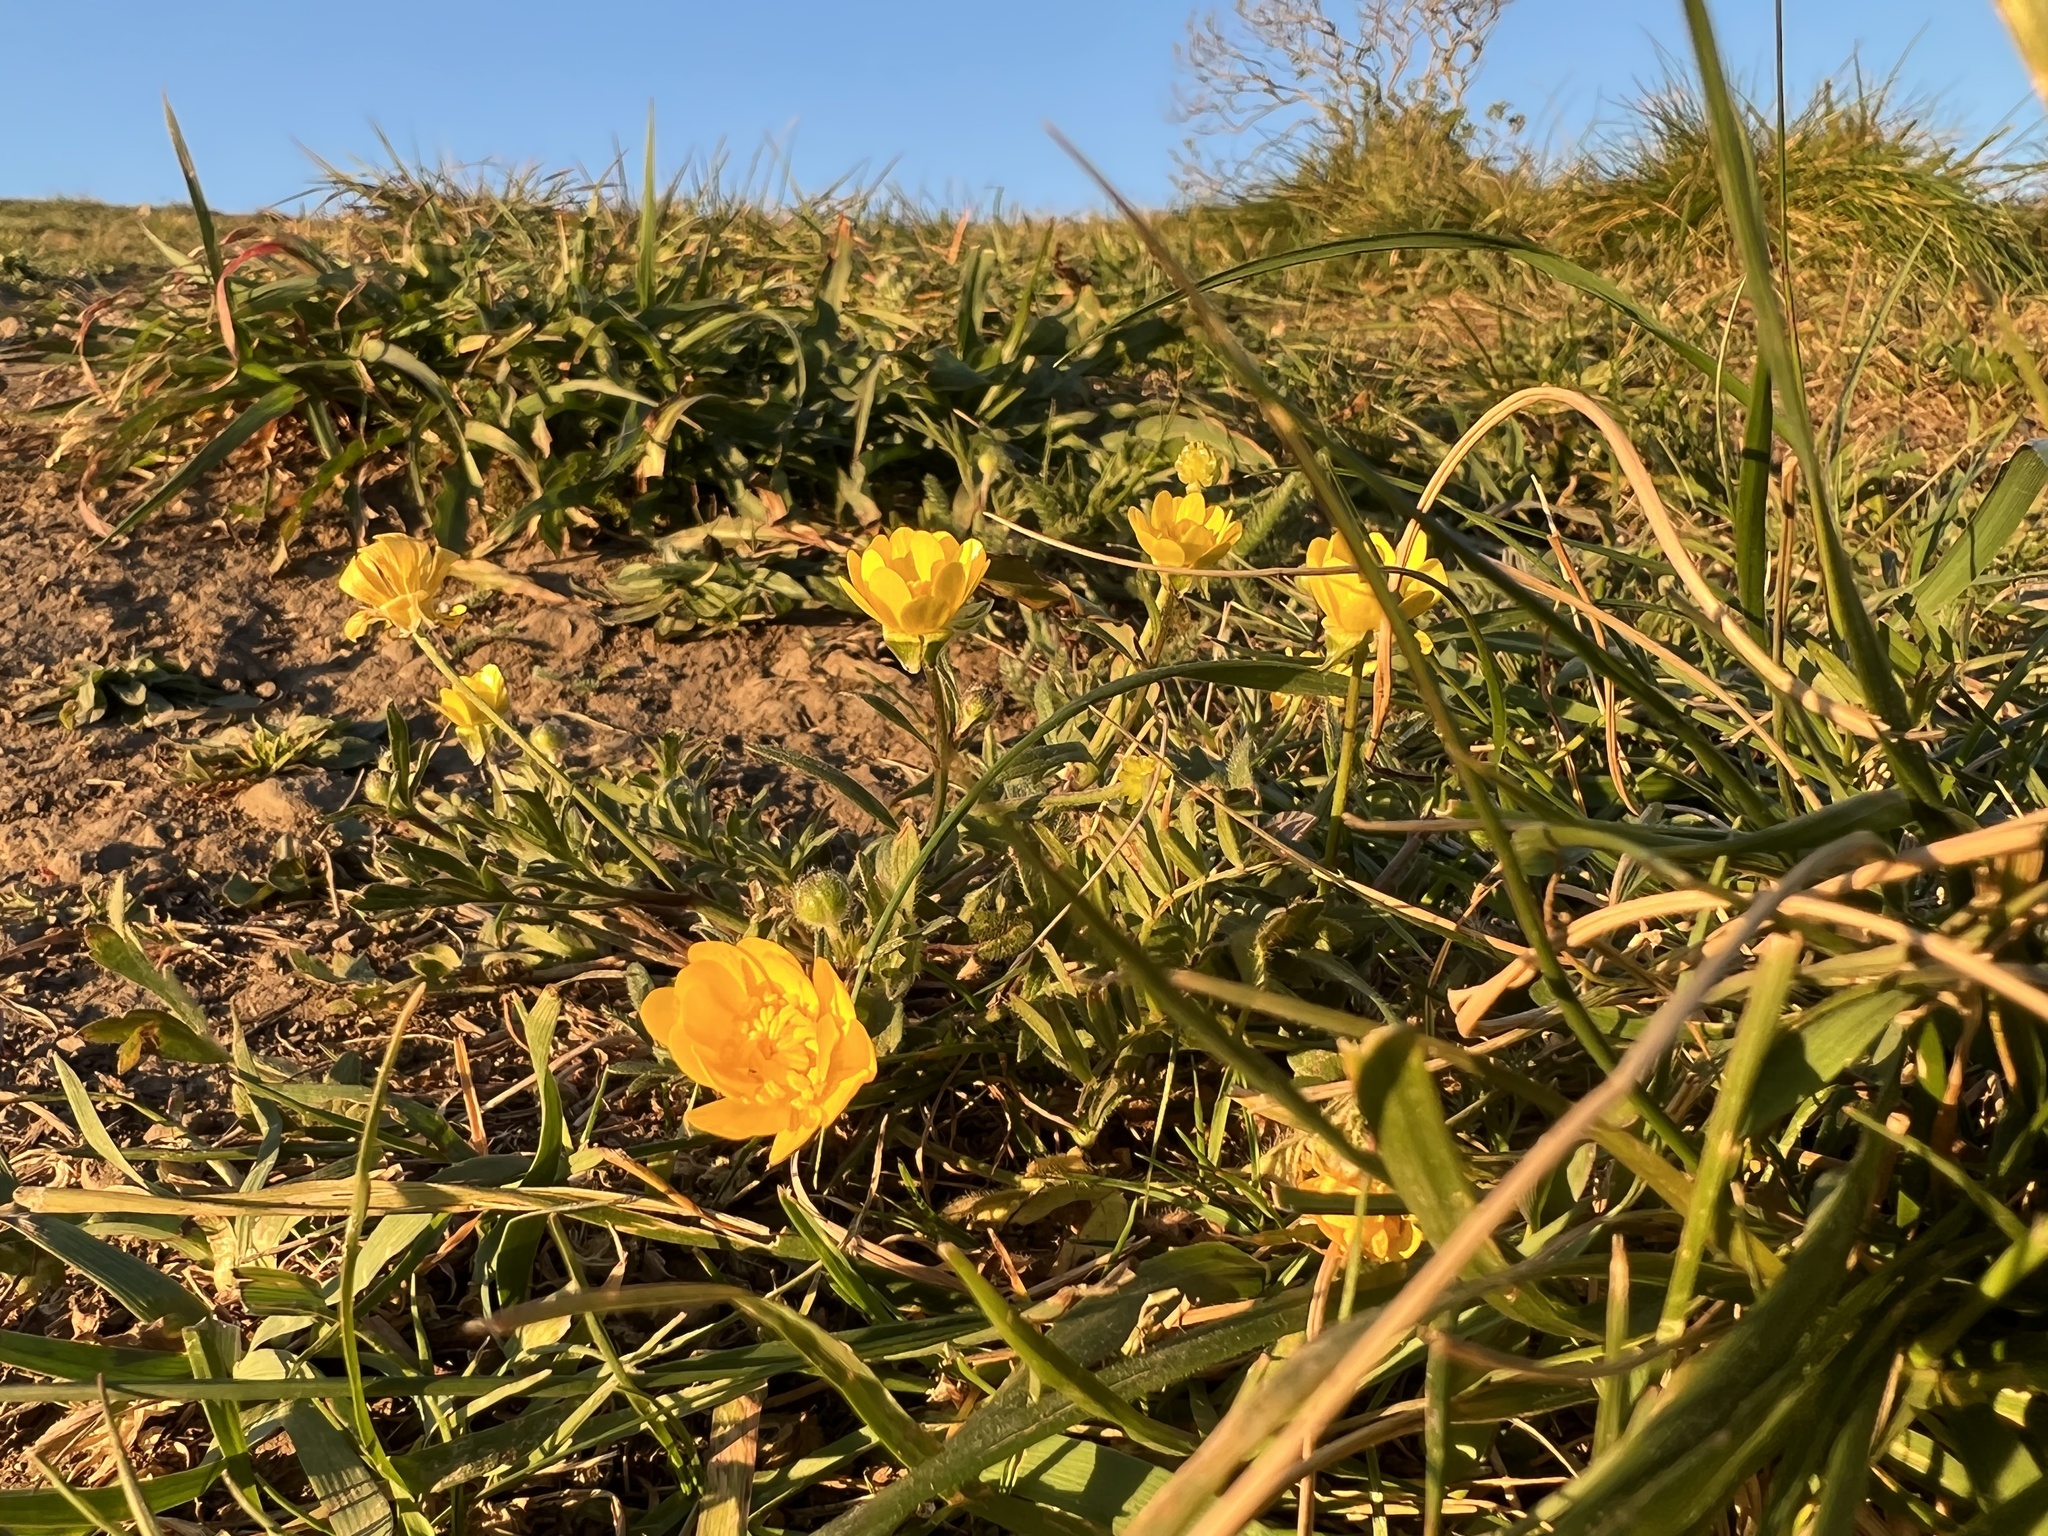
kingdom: Plantae
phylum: Tracheophyta
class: Magnoliopsida
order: Ranunculales
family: Ranunculaceae
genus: Ranunculus
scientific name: Ranunculus californicus
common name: California buttercup
